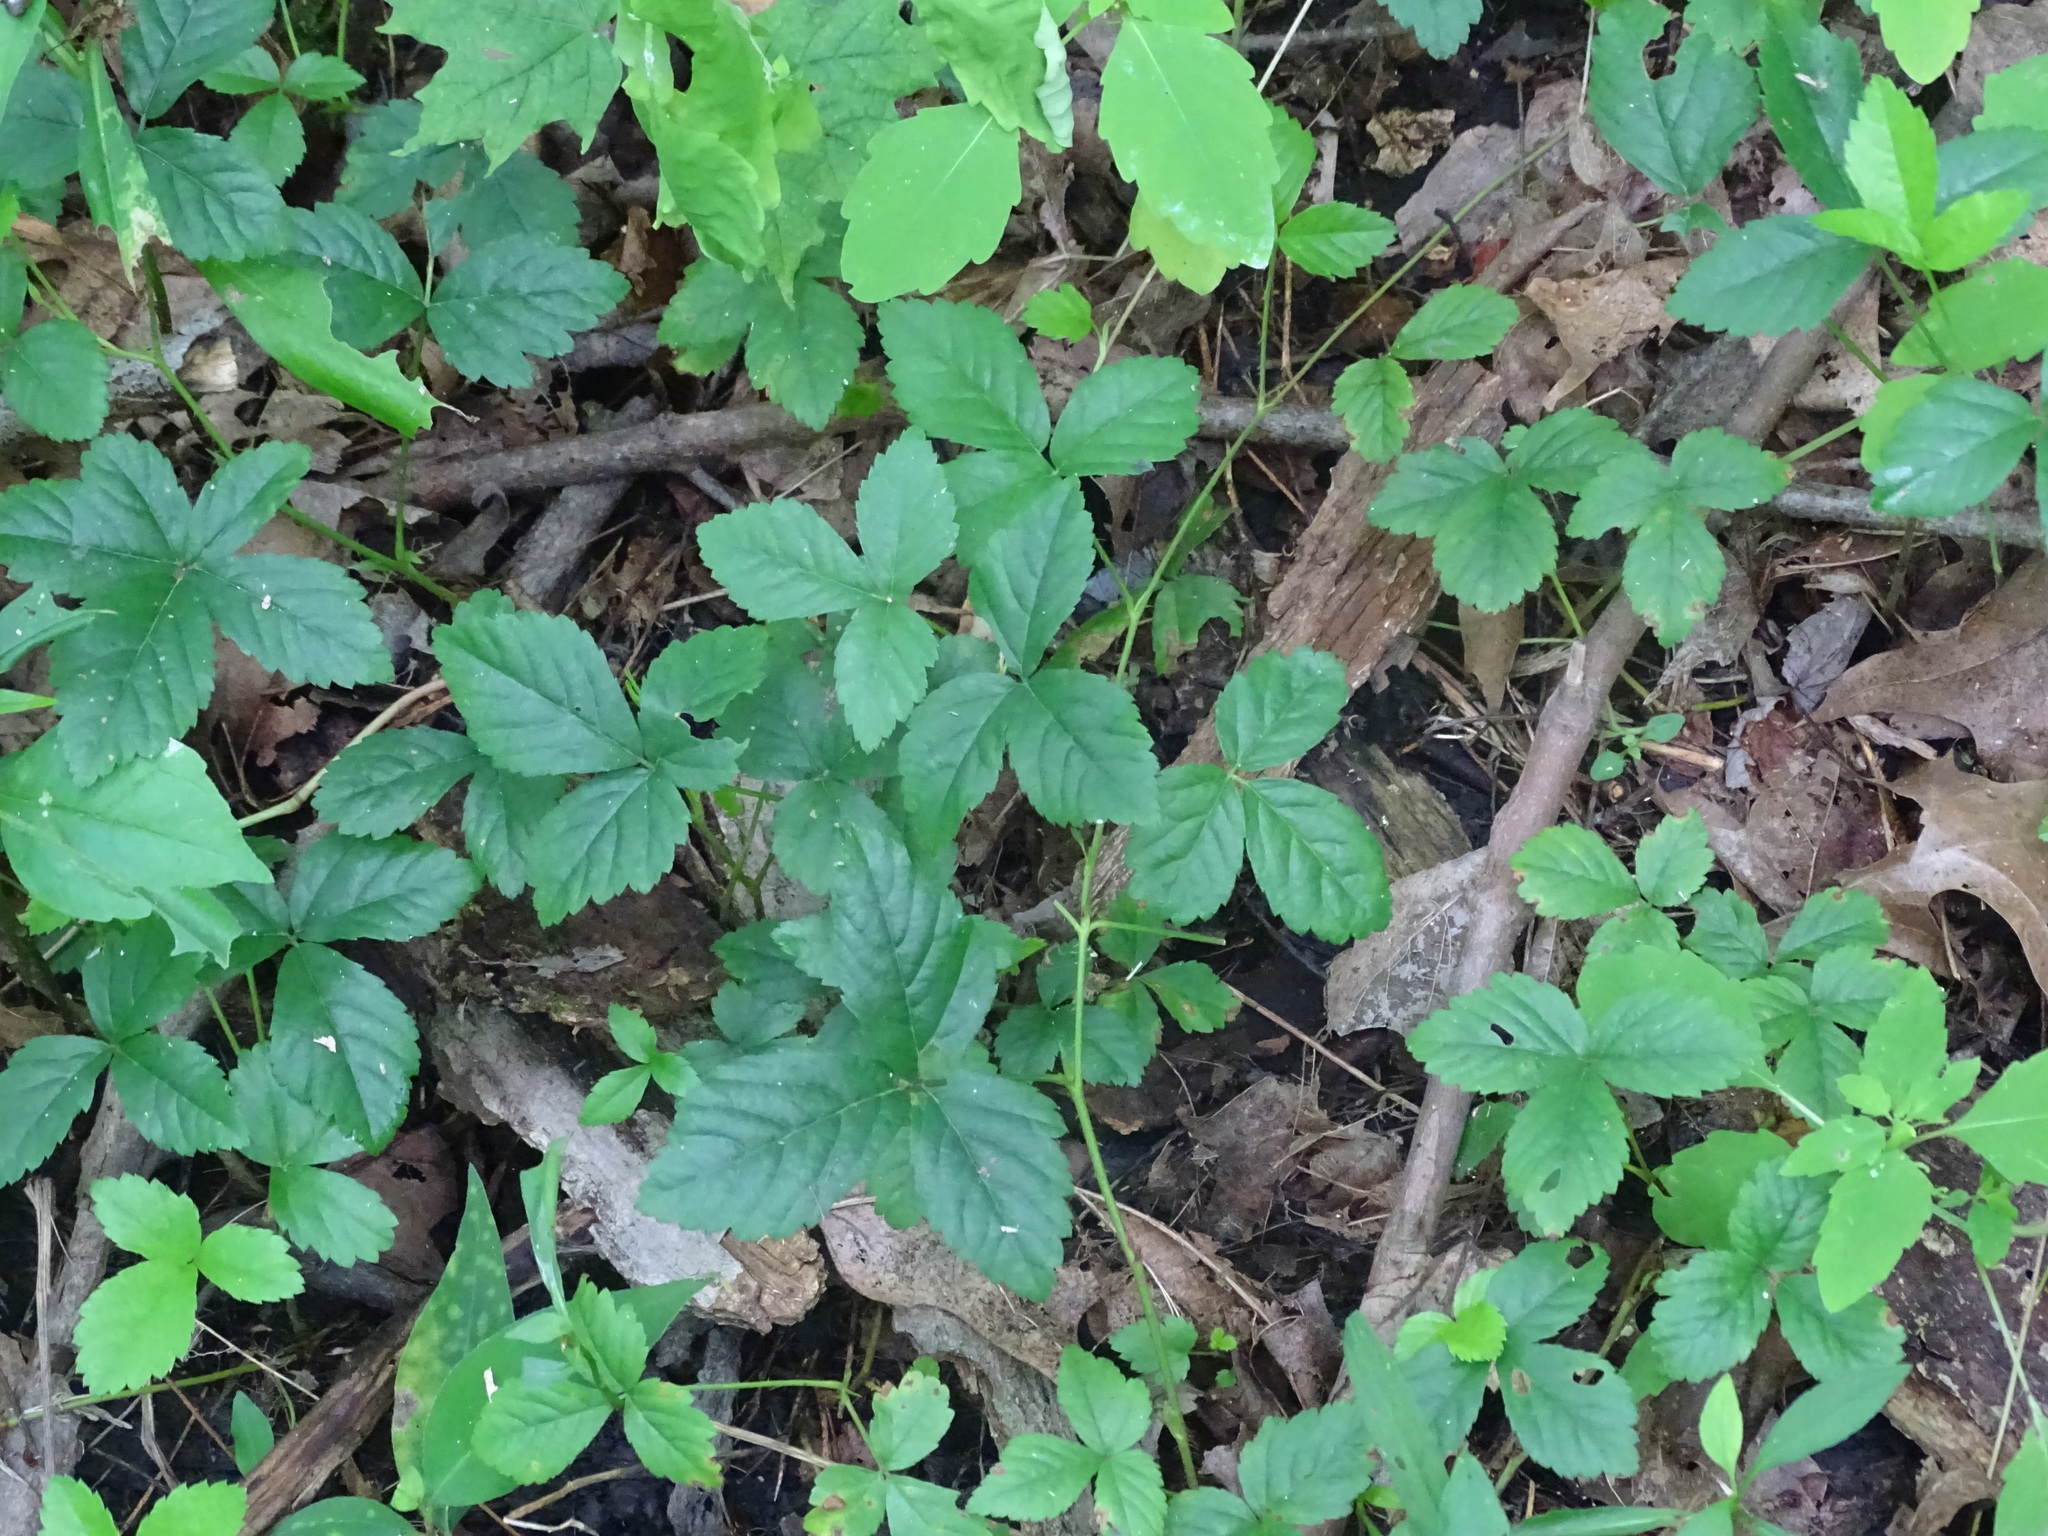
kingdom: Plantae
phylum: Tracheophyta
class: Magnoliopsida
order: Rosales
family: Rosaceae
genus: Potentilla
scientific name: Potentilla indica
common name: Yellow-flowered strawberry
